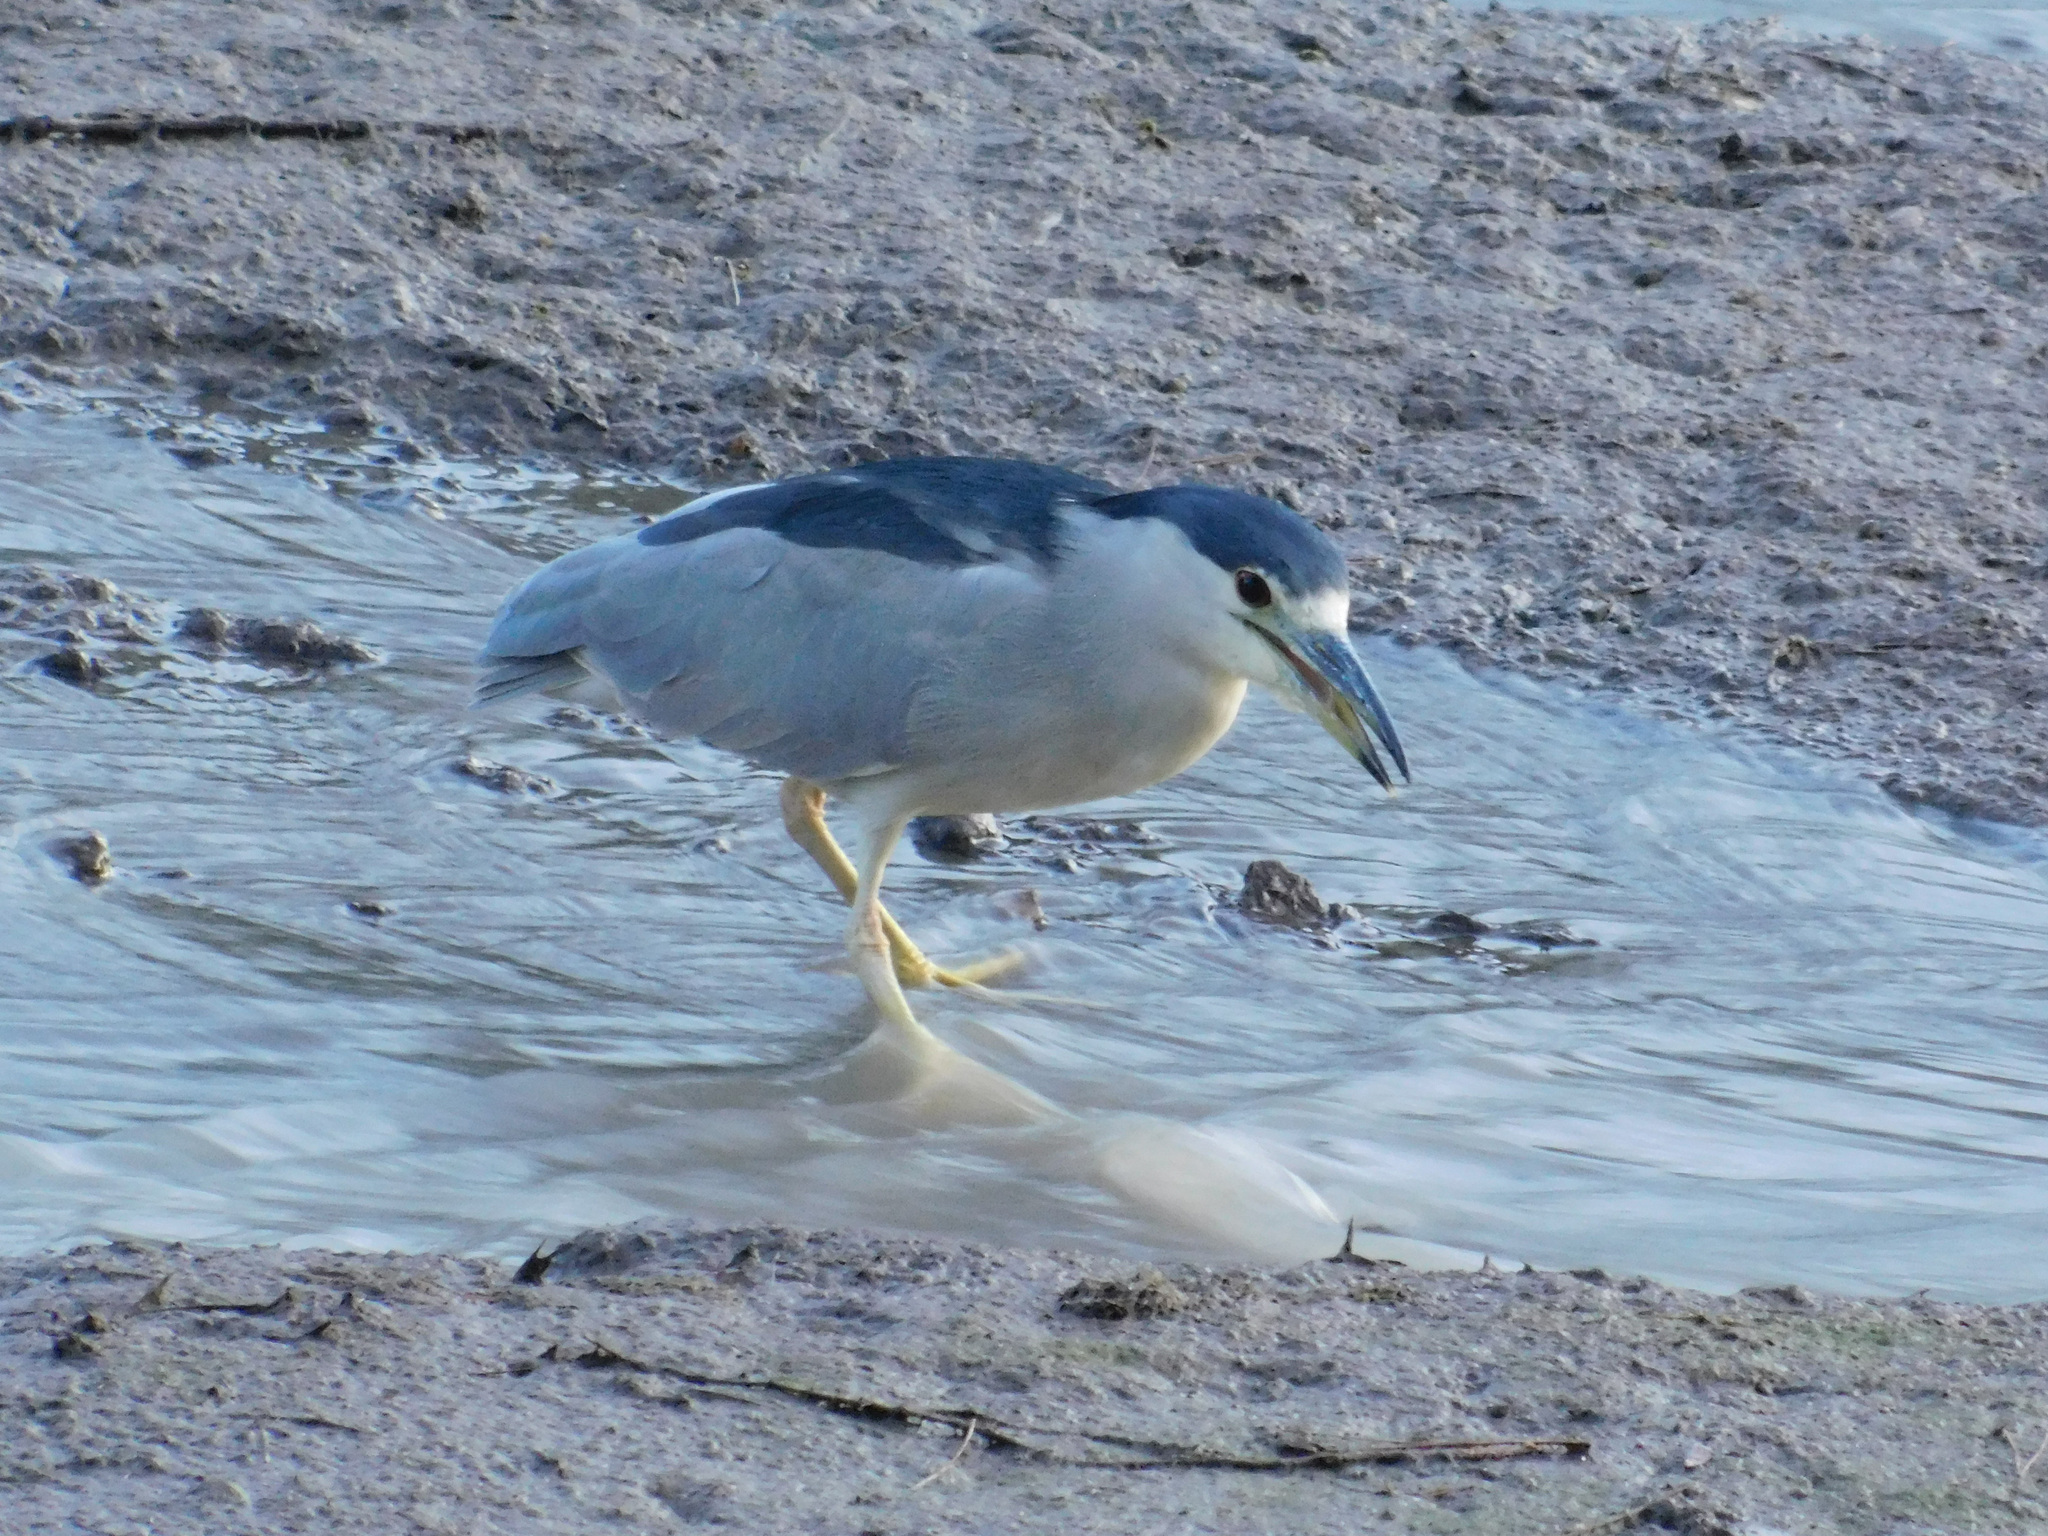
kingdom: Animalia
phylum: Chordata
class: Aves
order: Pelecaniformes
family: Ardeidae
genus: Nycticorax
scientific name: Nycticorax nycticorax
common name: Black-crowned night heron
